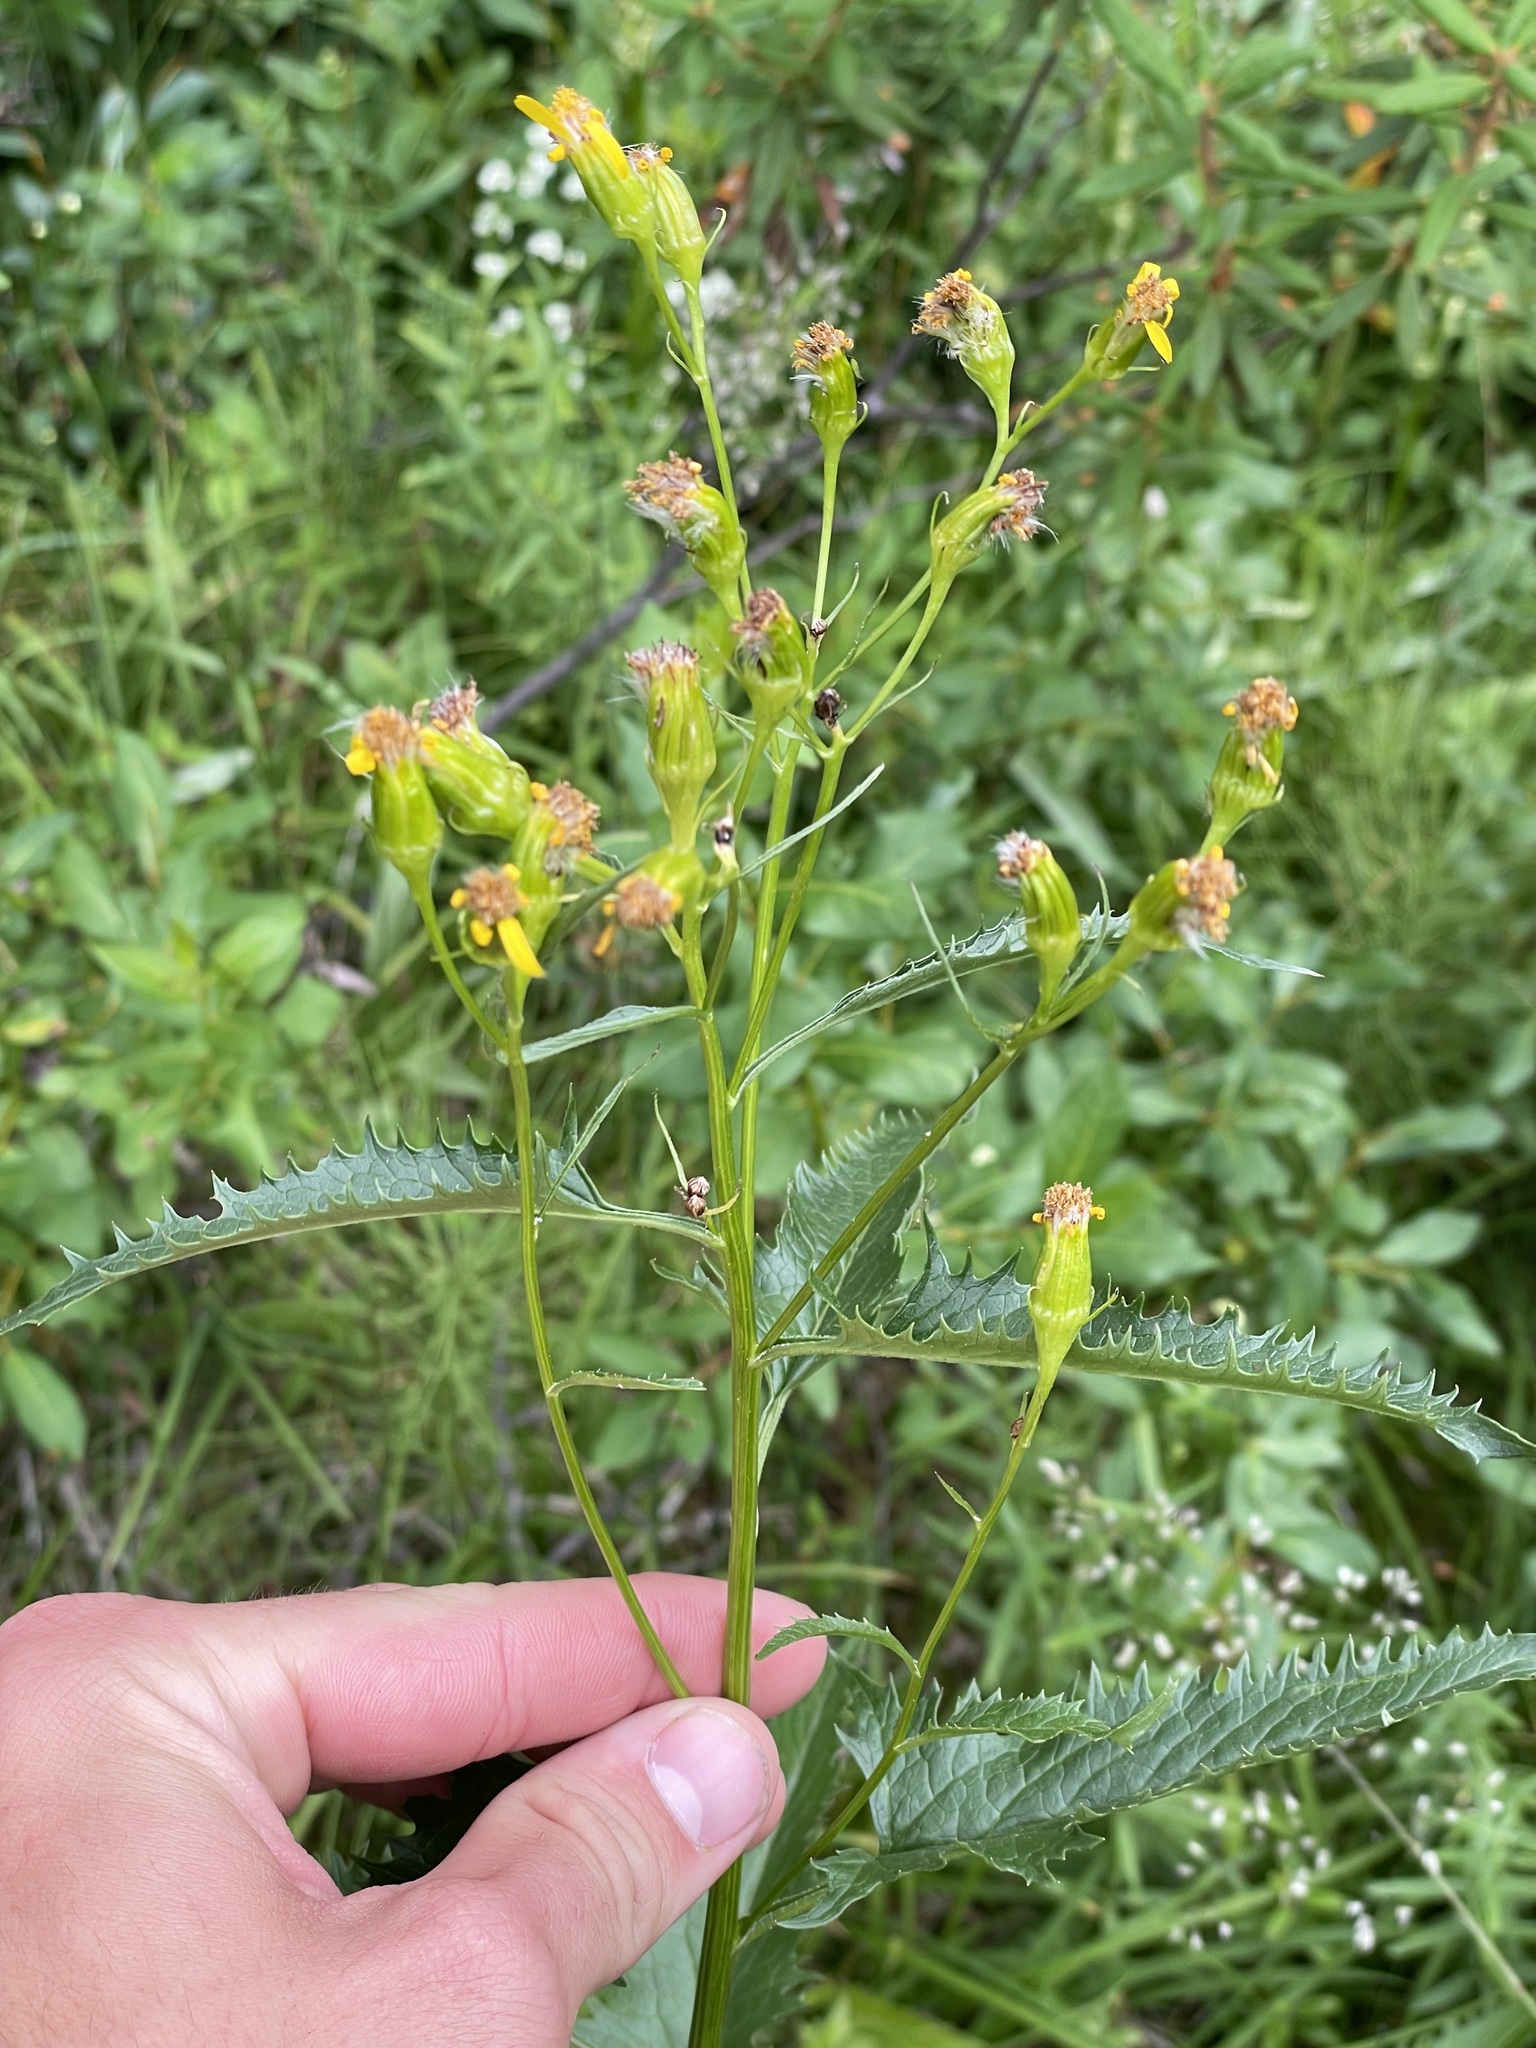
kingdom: Plantae
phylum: Tracheophyta
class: Magnoliopsida
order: Asterales
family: Asteraceae
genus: Senecio
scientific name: Senecio triangularis
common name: Arrowleaf butterweed
